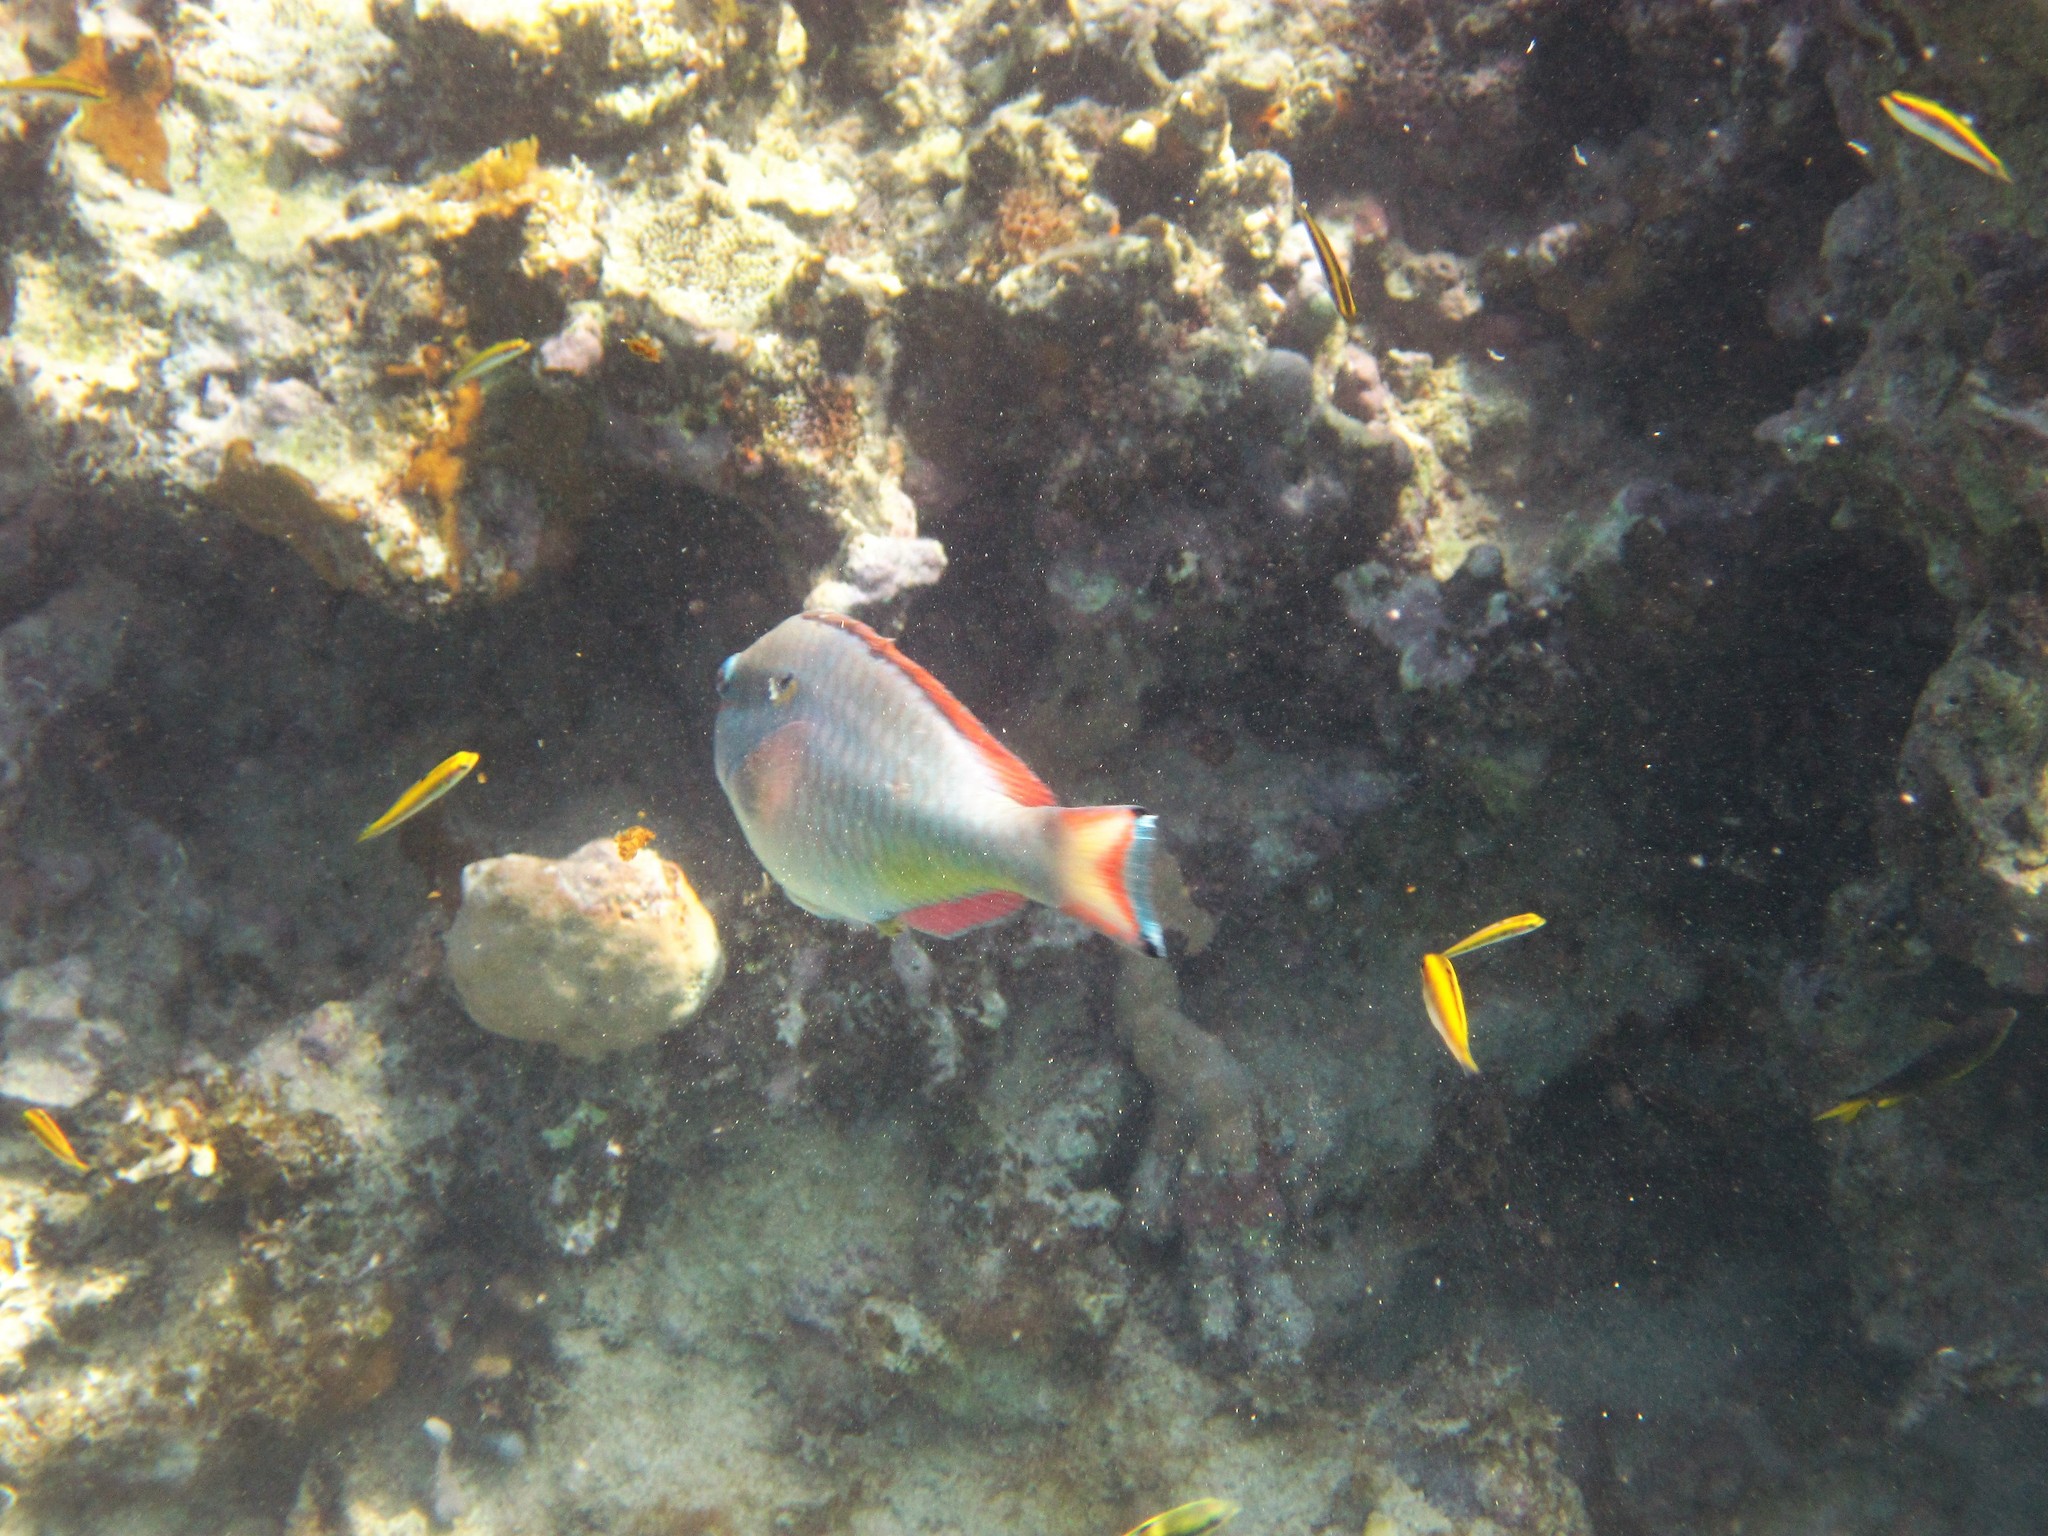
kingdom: Animalia
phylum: Chordata
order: Perciformes
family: Scaridae
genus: Sparisoma
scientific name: Sparisoma aurofrenatum
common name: Redband parrotfish
